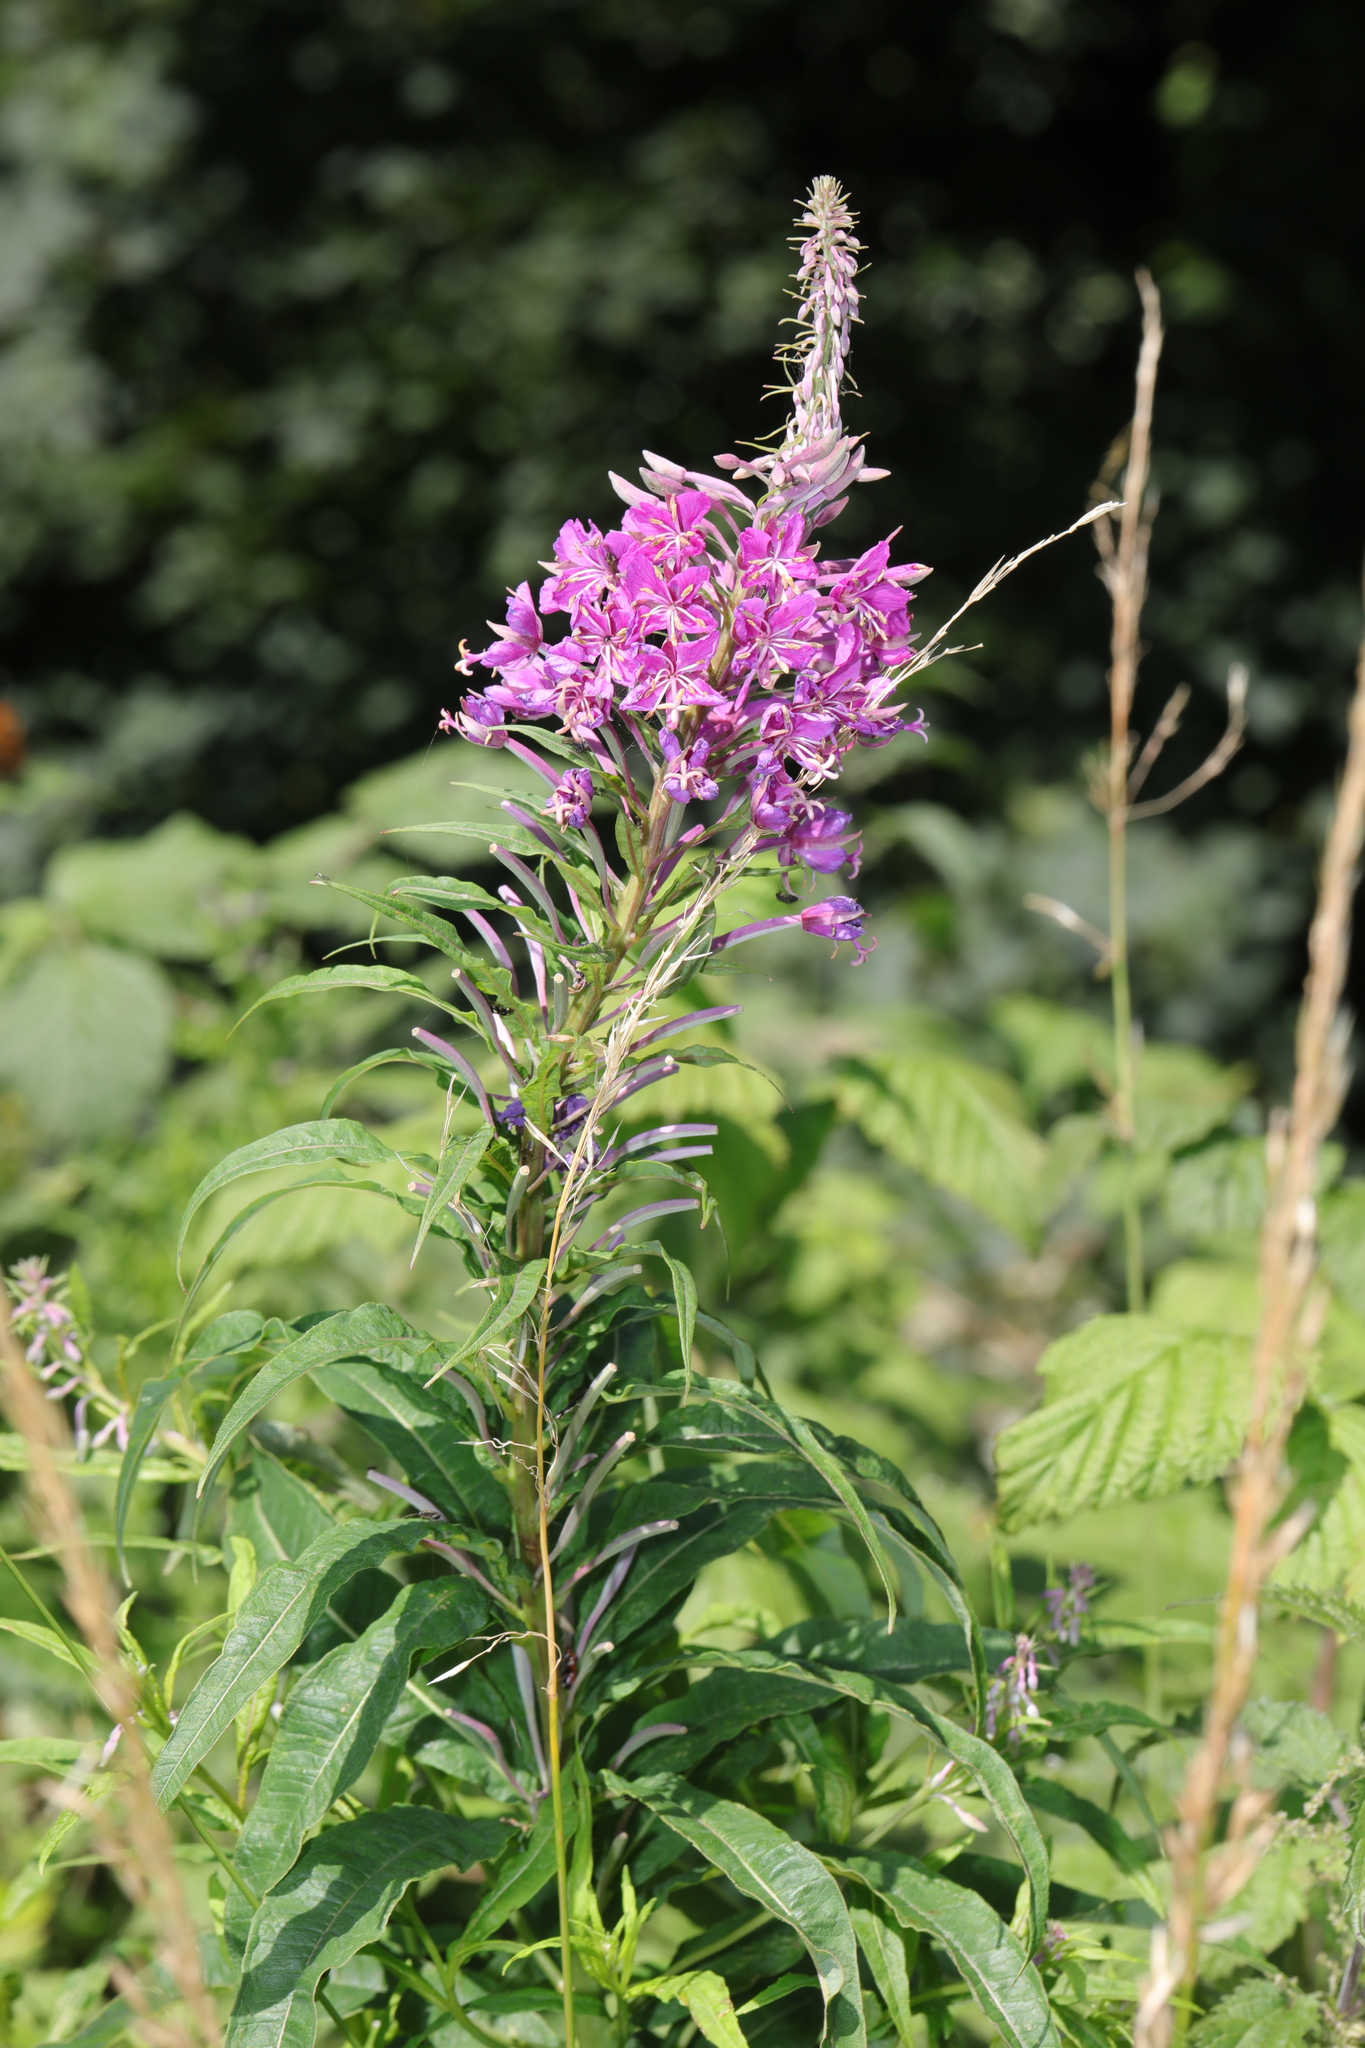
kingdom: Plantae
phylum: Tracheophyta
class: Magnoliopsida
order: Myrtales
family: Onagraceae
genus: Chamaenerion
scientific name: Chamaenerion angustifolium
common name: Fireweed
